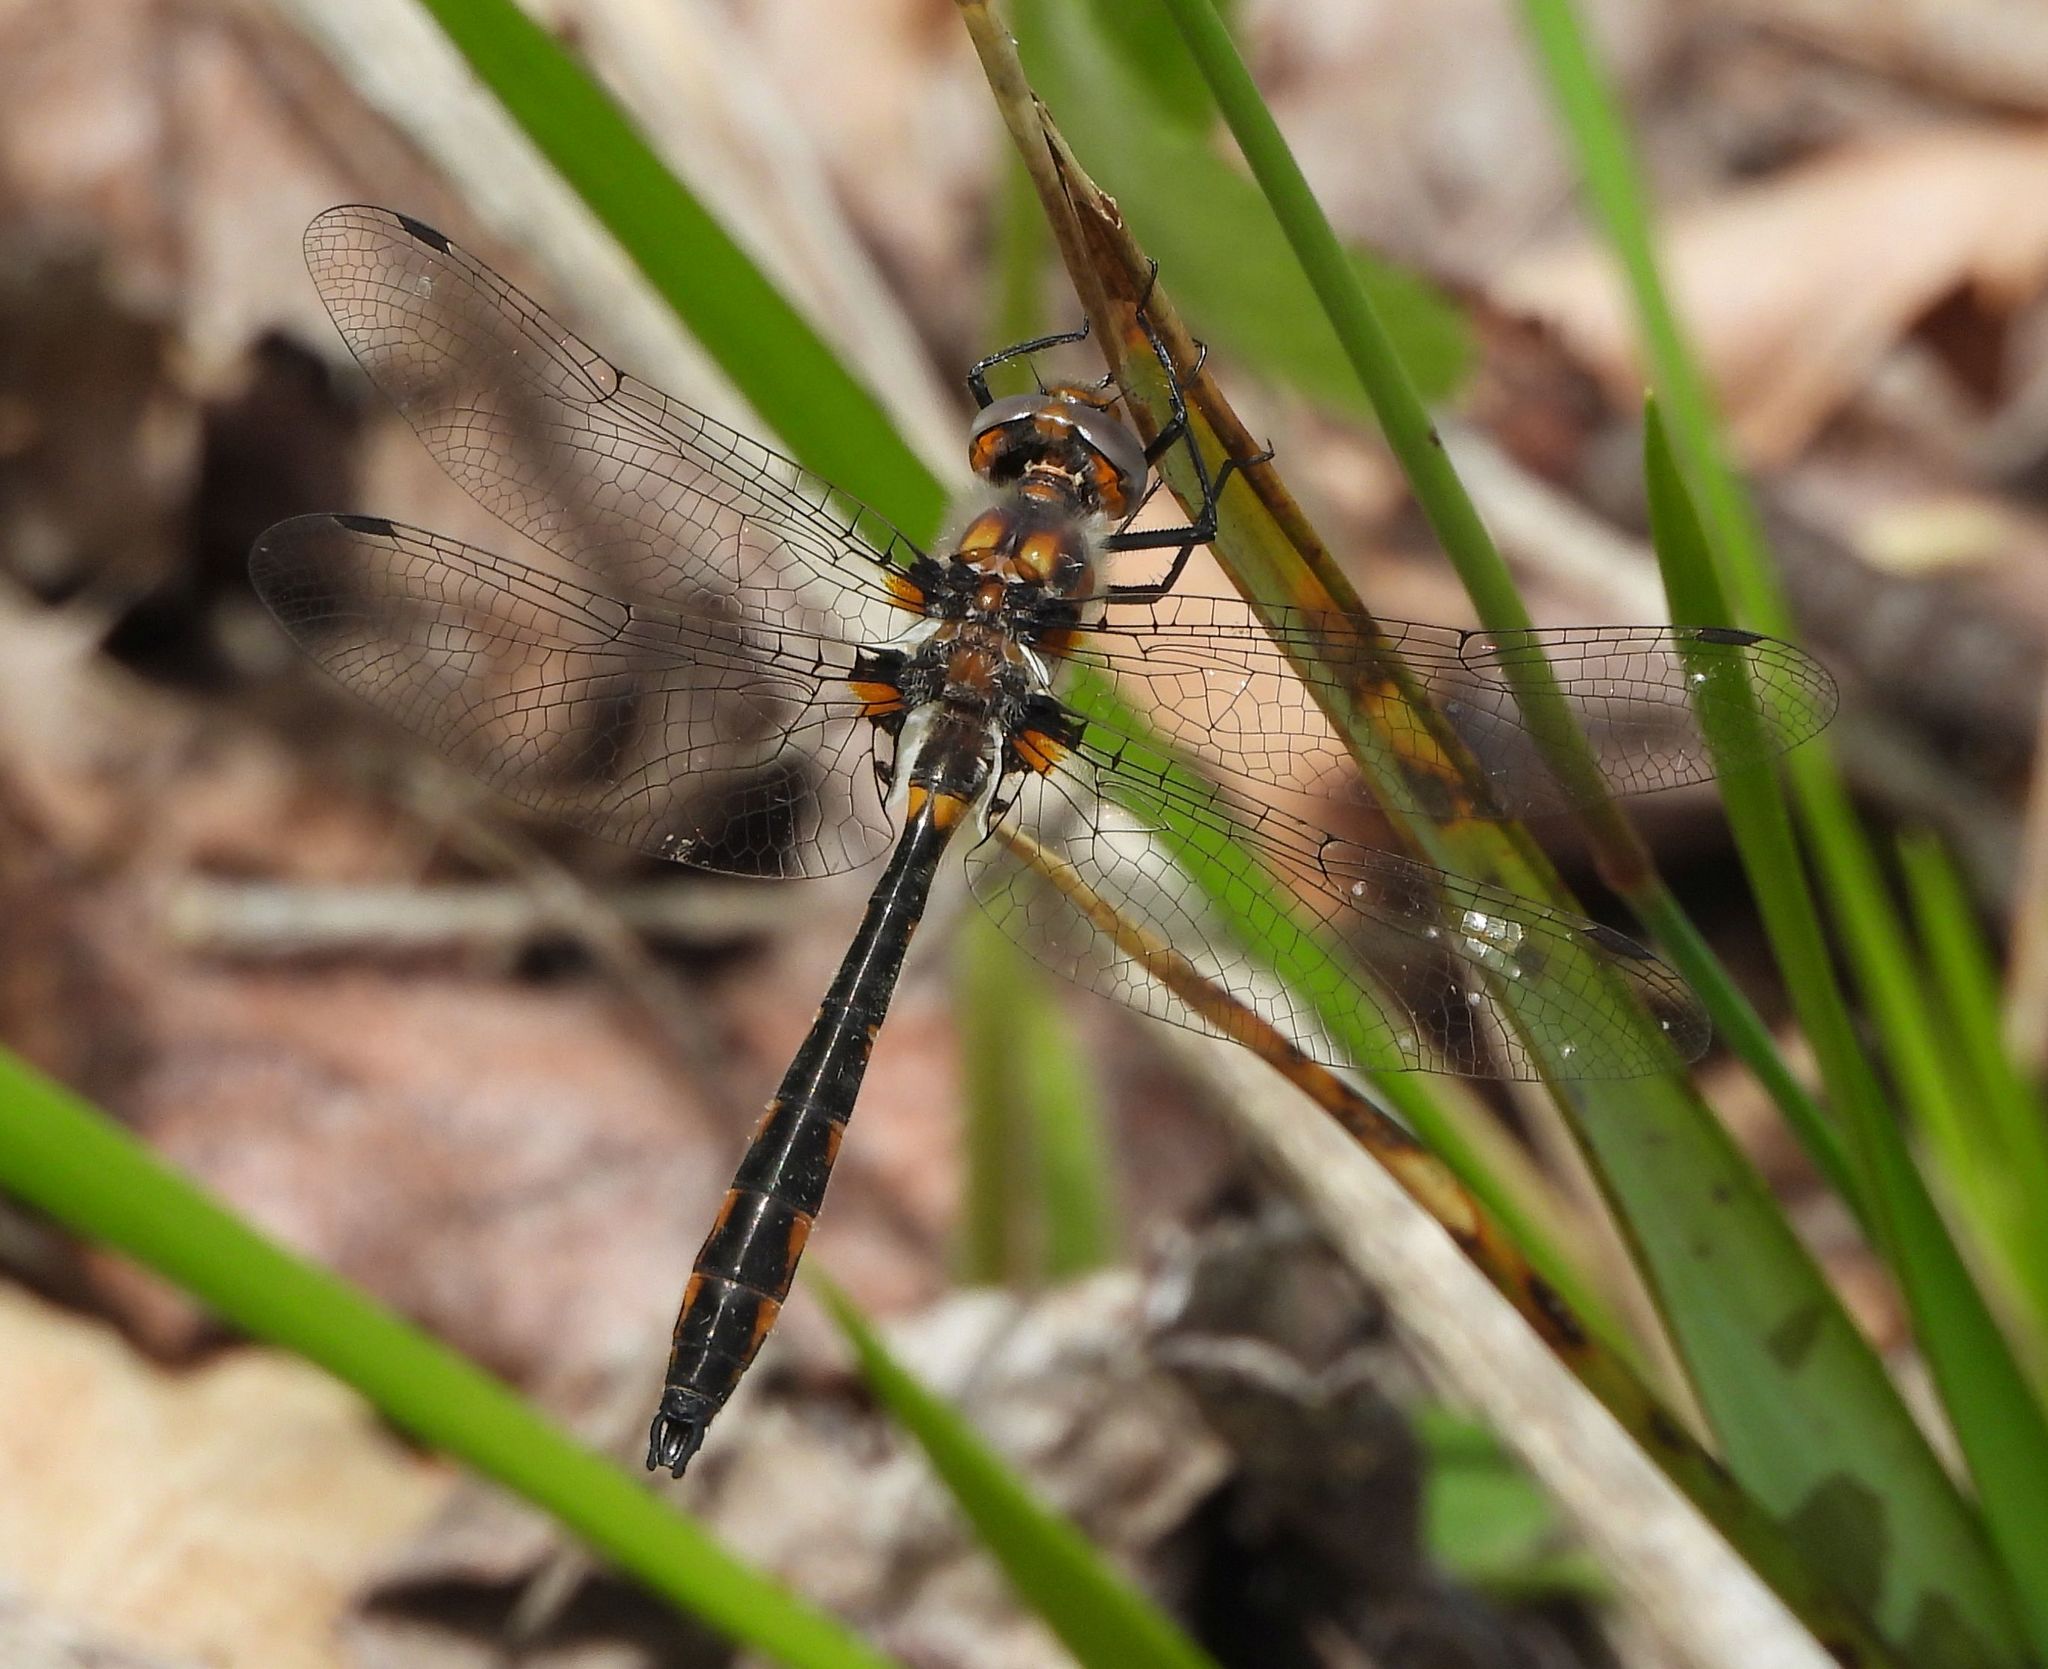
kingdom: Animalia
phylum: Arthropoda
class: Insecta
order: Odonata
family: Corduliidae
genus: Helocordulia
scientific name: Helocordulia uhleri
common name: Uhler's sundragon
